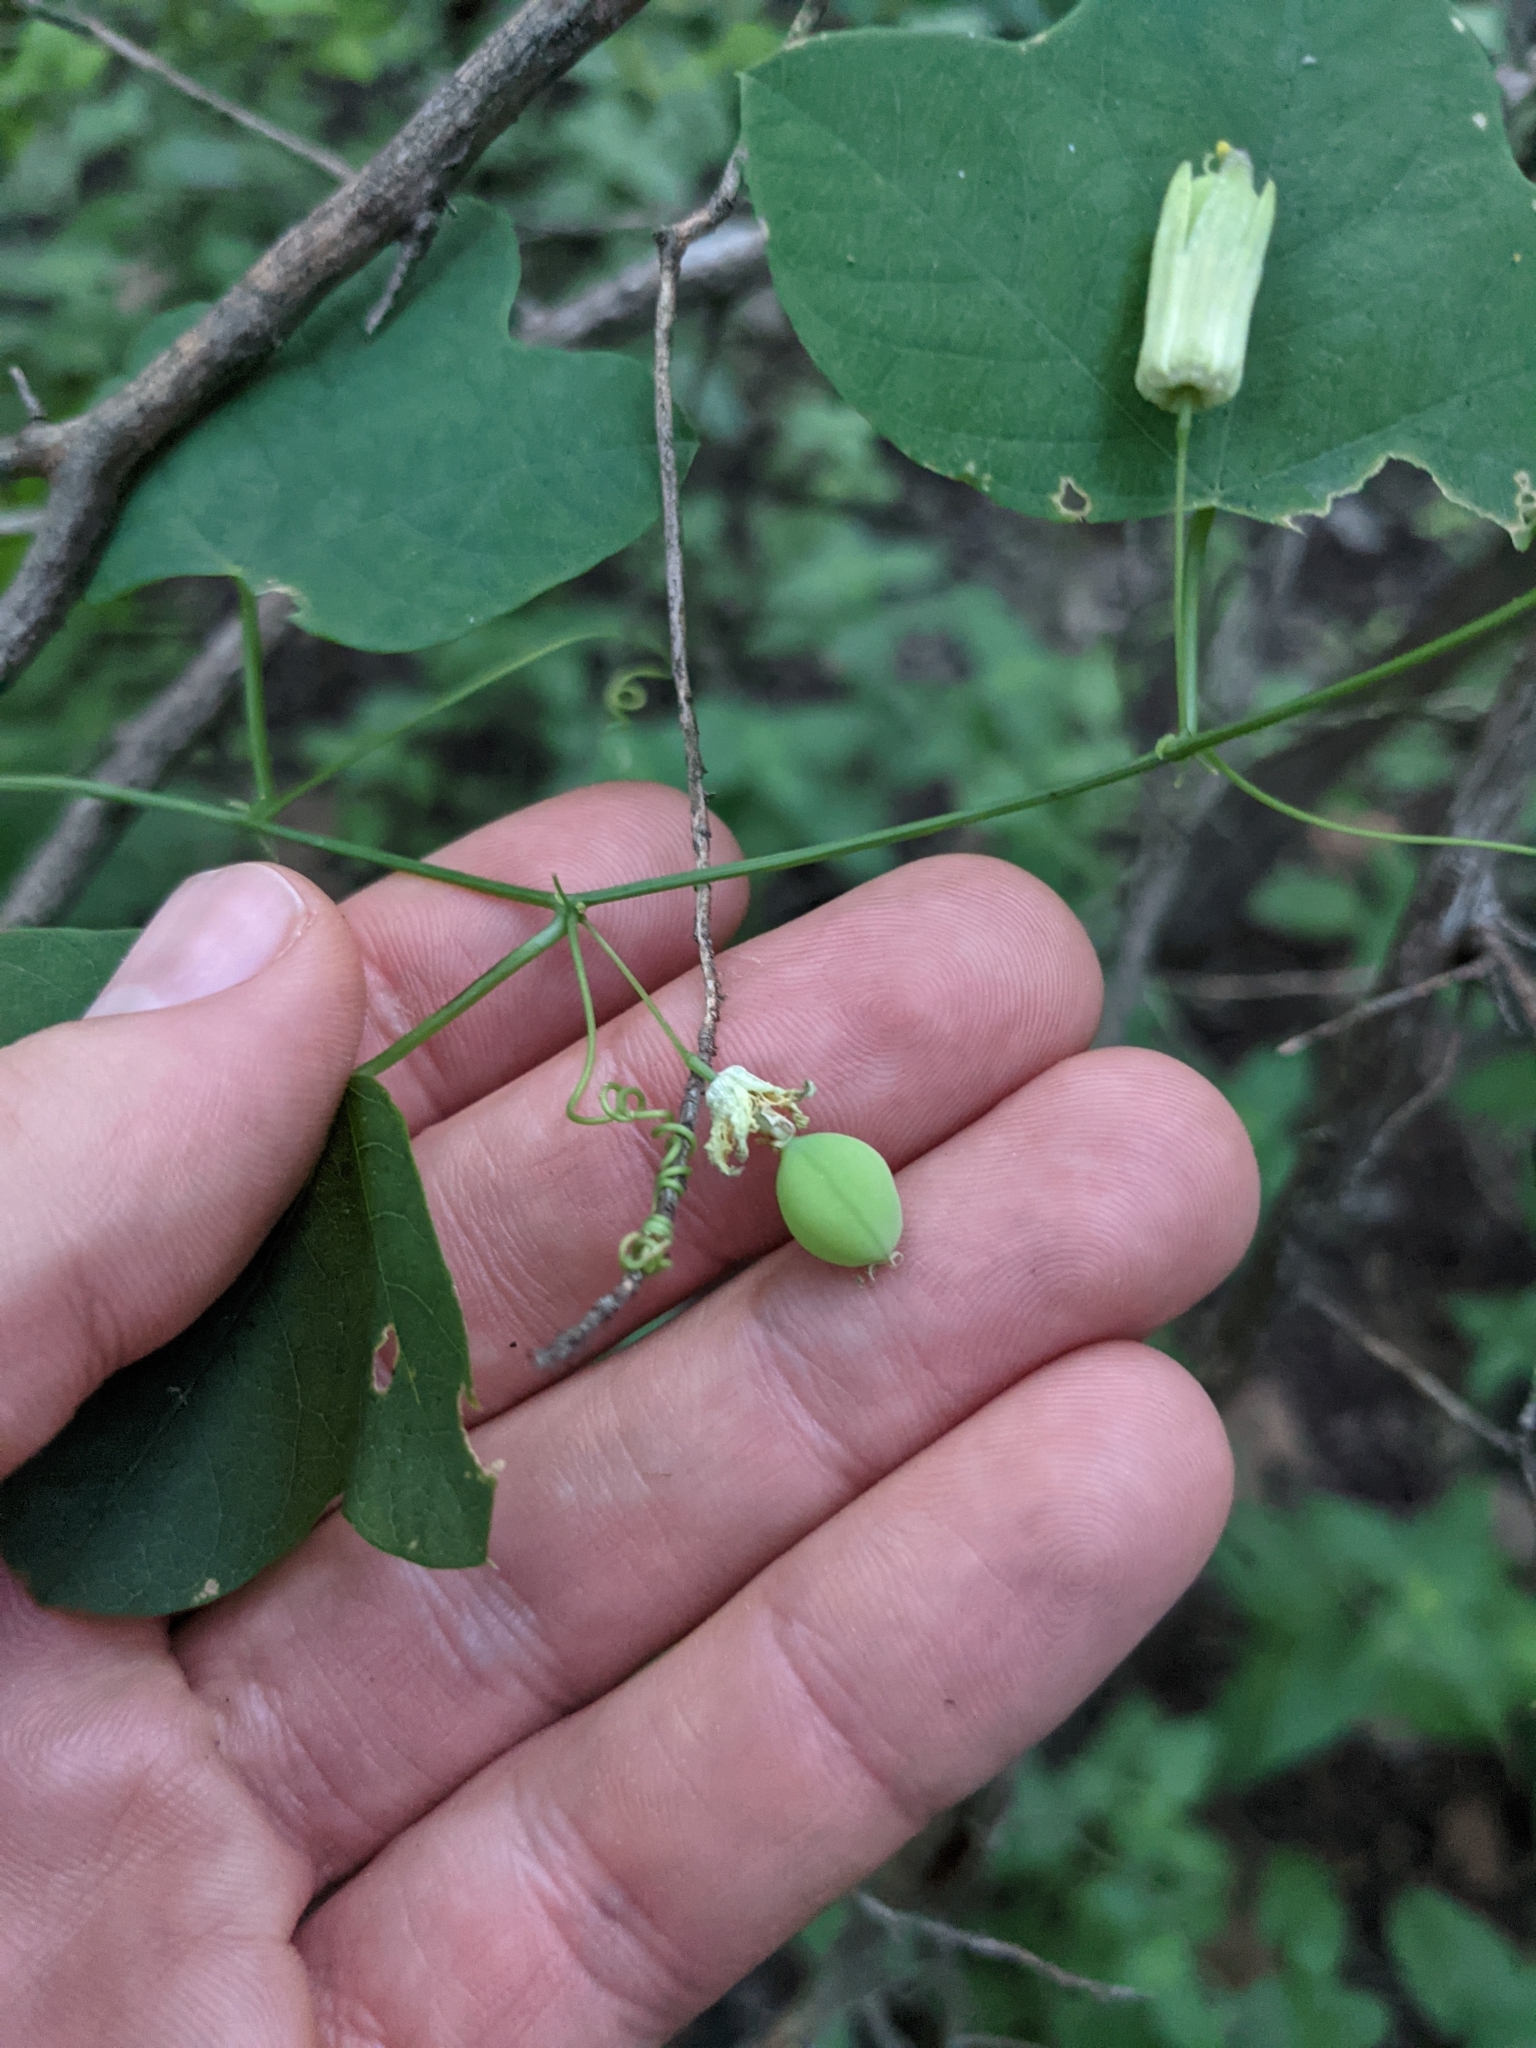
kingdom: Plantae
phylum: Tracheophyta
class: Magnoliopsida
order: Malpighiales
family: Passifloraceae
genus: Passiflora
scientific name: Passiflora lutea
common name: Yellow passionflower
